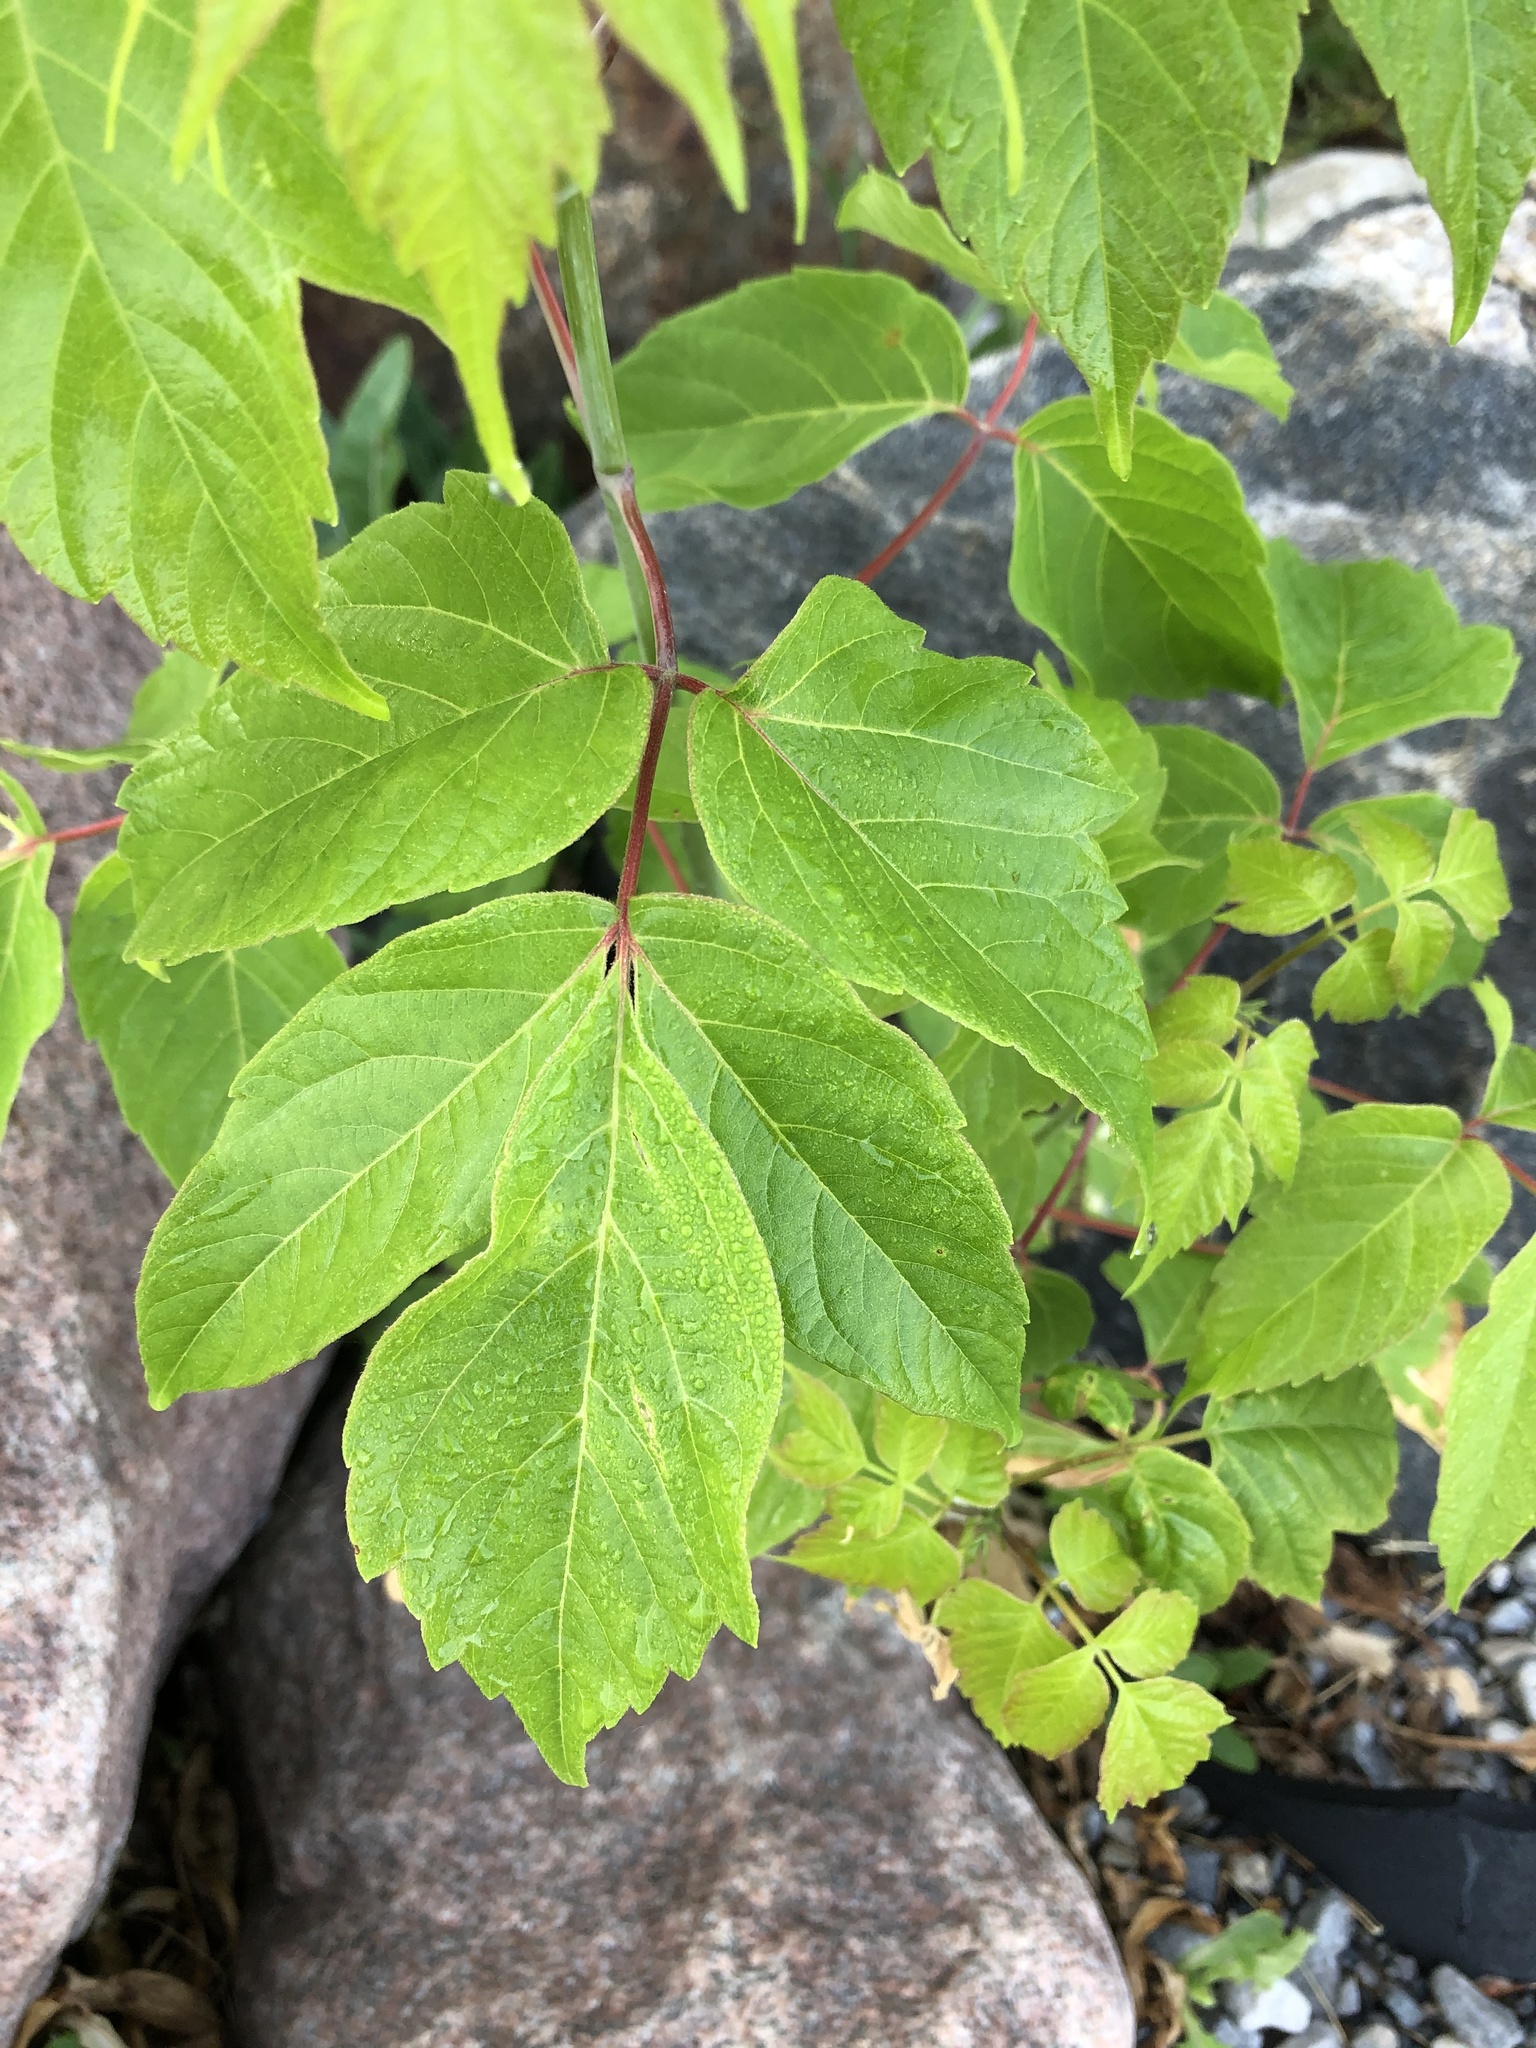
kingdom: Plantae
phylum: Tracheophyta
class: Magnoliopsida
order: Sapindales
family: Sapindaceae
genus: Acer
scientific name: Acer negundo
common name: Ashleaf maple
